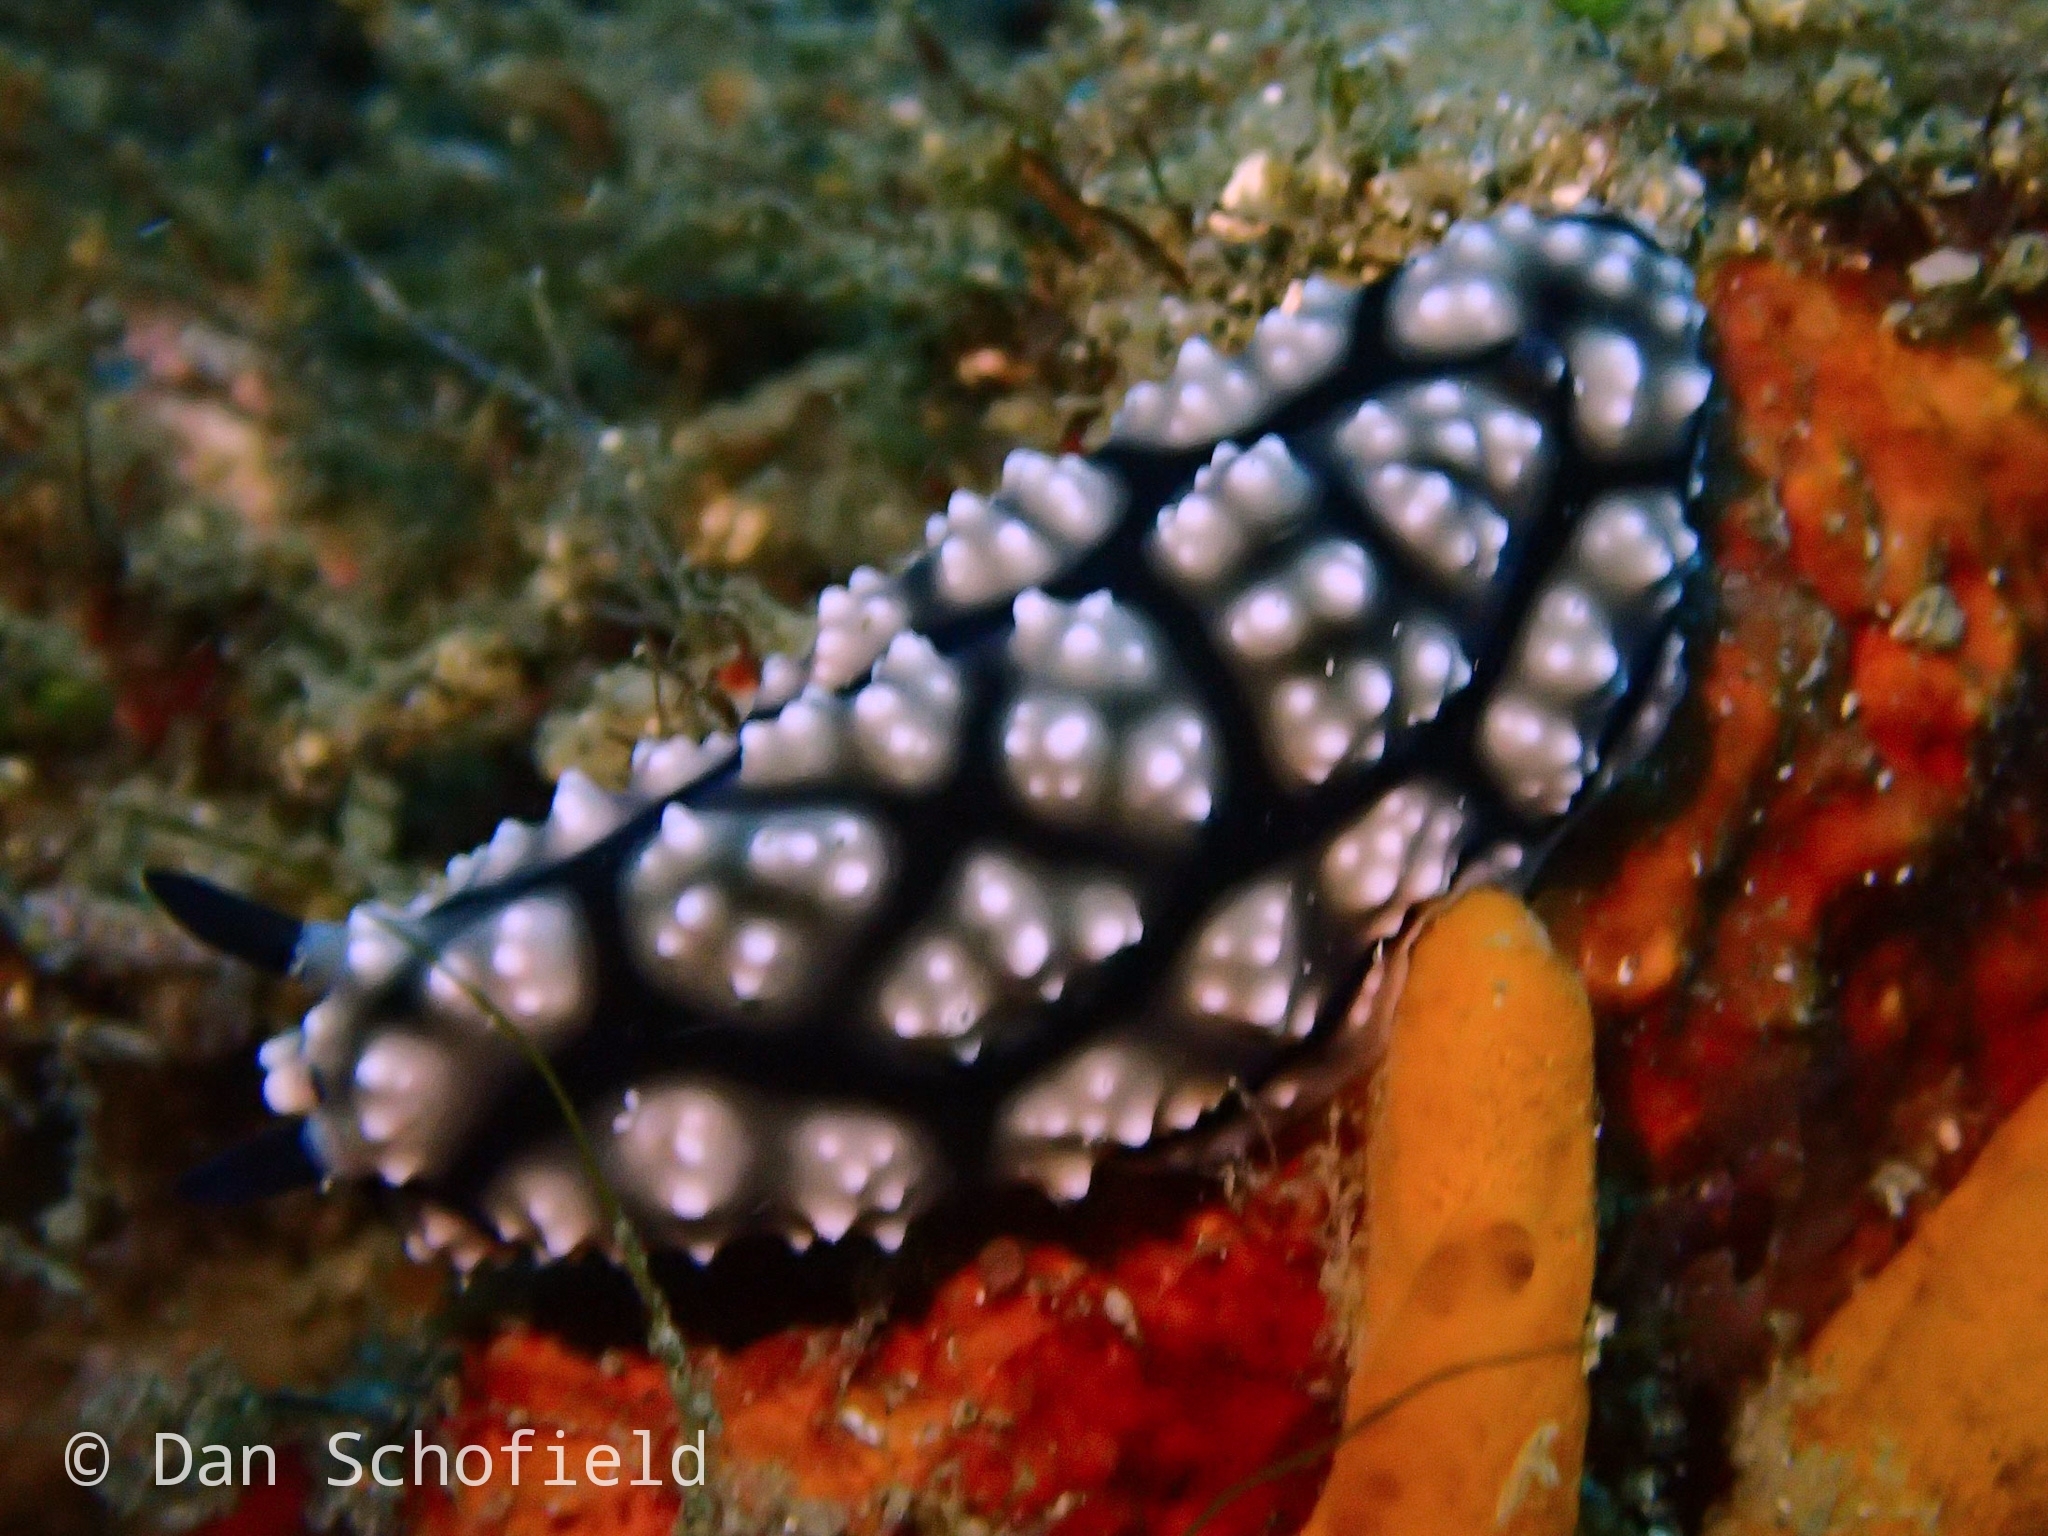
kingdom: Animalia
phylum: Mollusca
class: Gastropoda
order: Nudibranchia
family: Phyllidiidae
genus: Phyllidiella
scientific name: Phyllidiella pustulosa
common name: Pustular phyllidia
